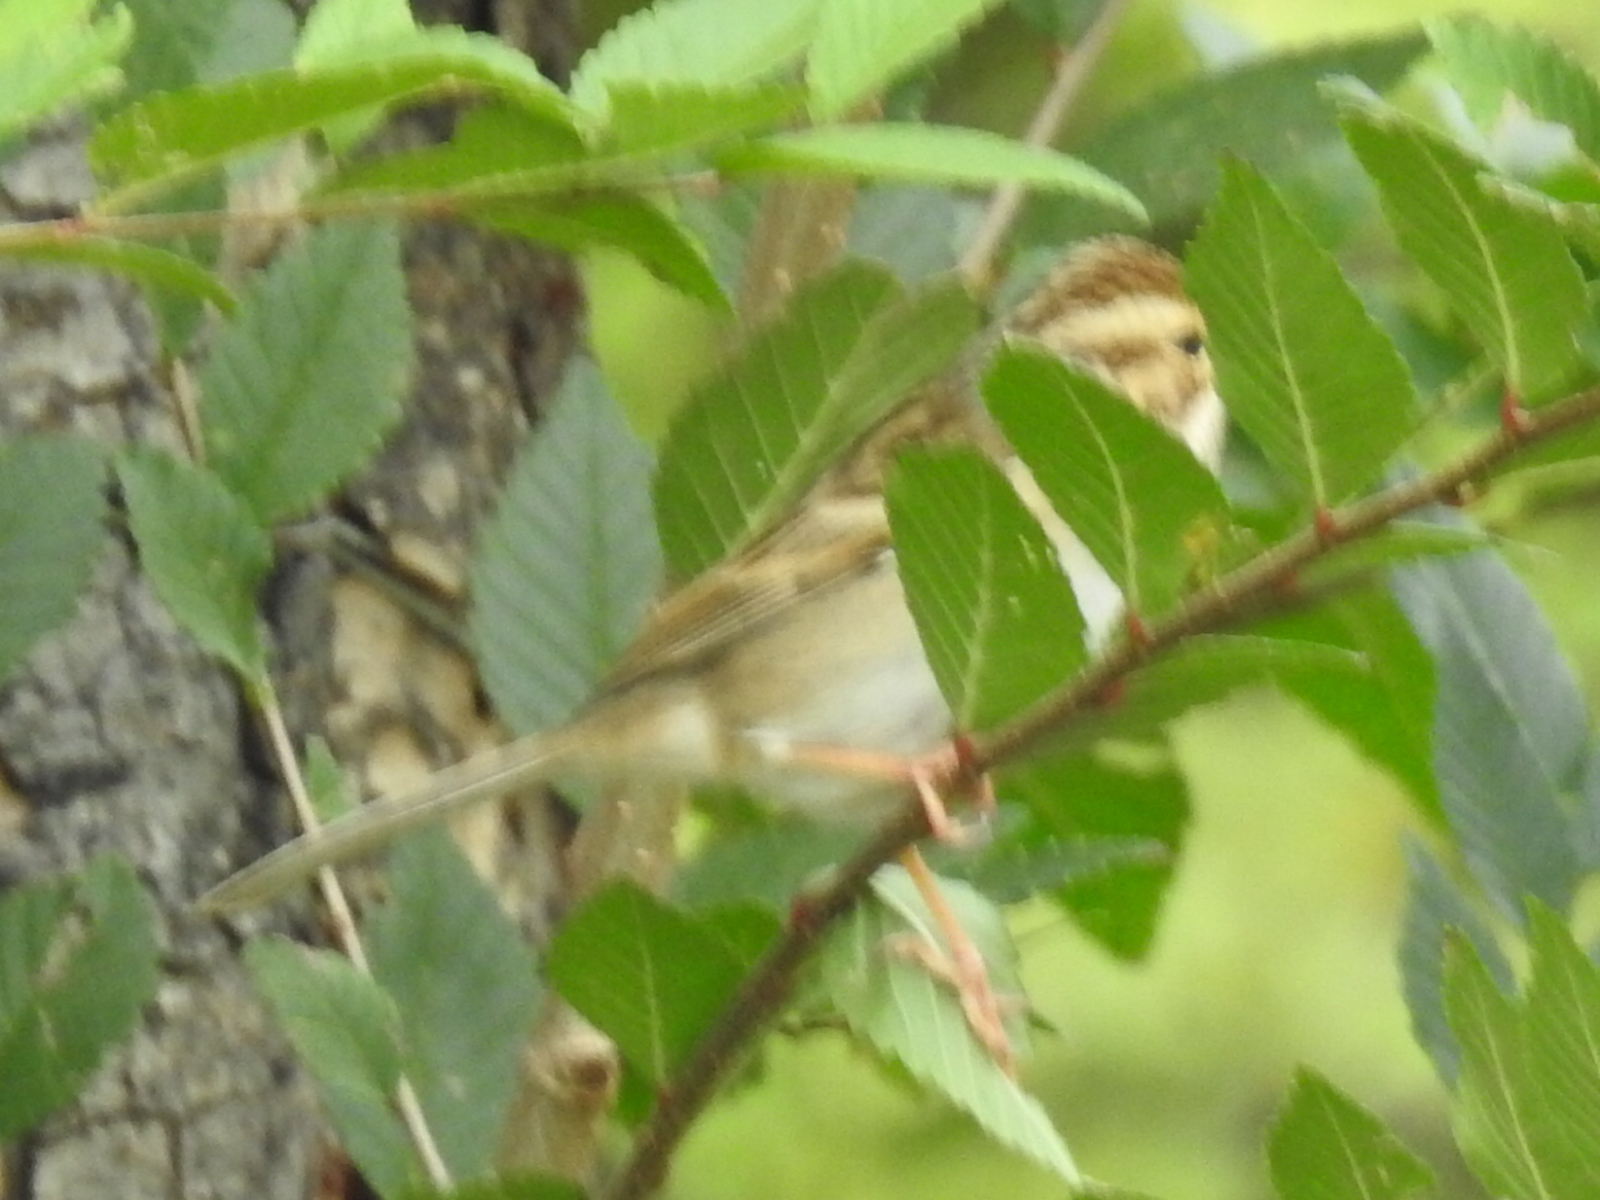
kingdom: Animalia
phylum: Chordata
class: Aves
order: Passeriformes
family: Passerellidae
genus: Spizella
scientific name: Spizella pallida
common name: Clay-colored sparrow
